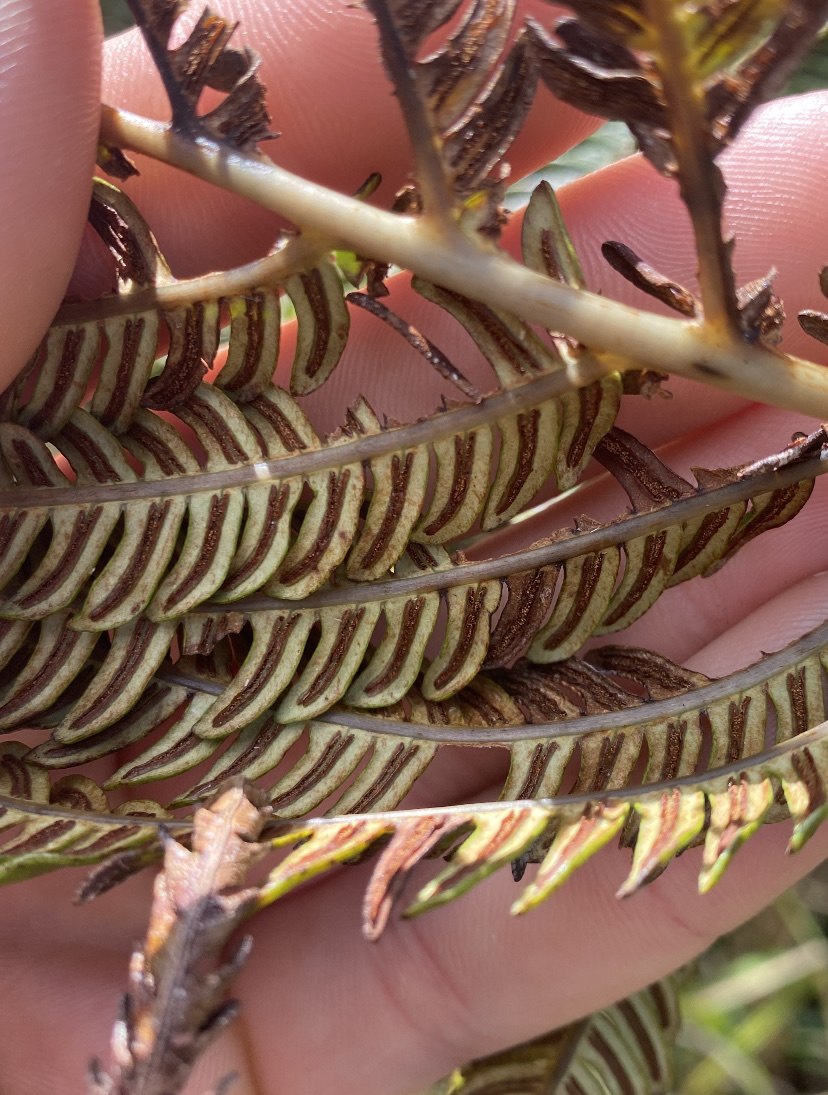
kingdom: Plantae
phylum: Tracheophyta
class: Polypodiopsida
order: Polypodiales
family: Blechnaceae
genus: Sadleria
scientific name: Sadleria cyatheoides
